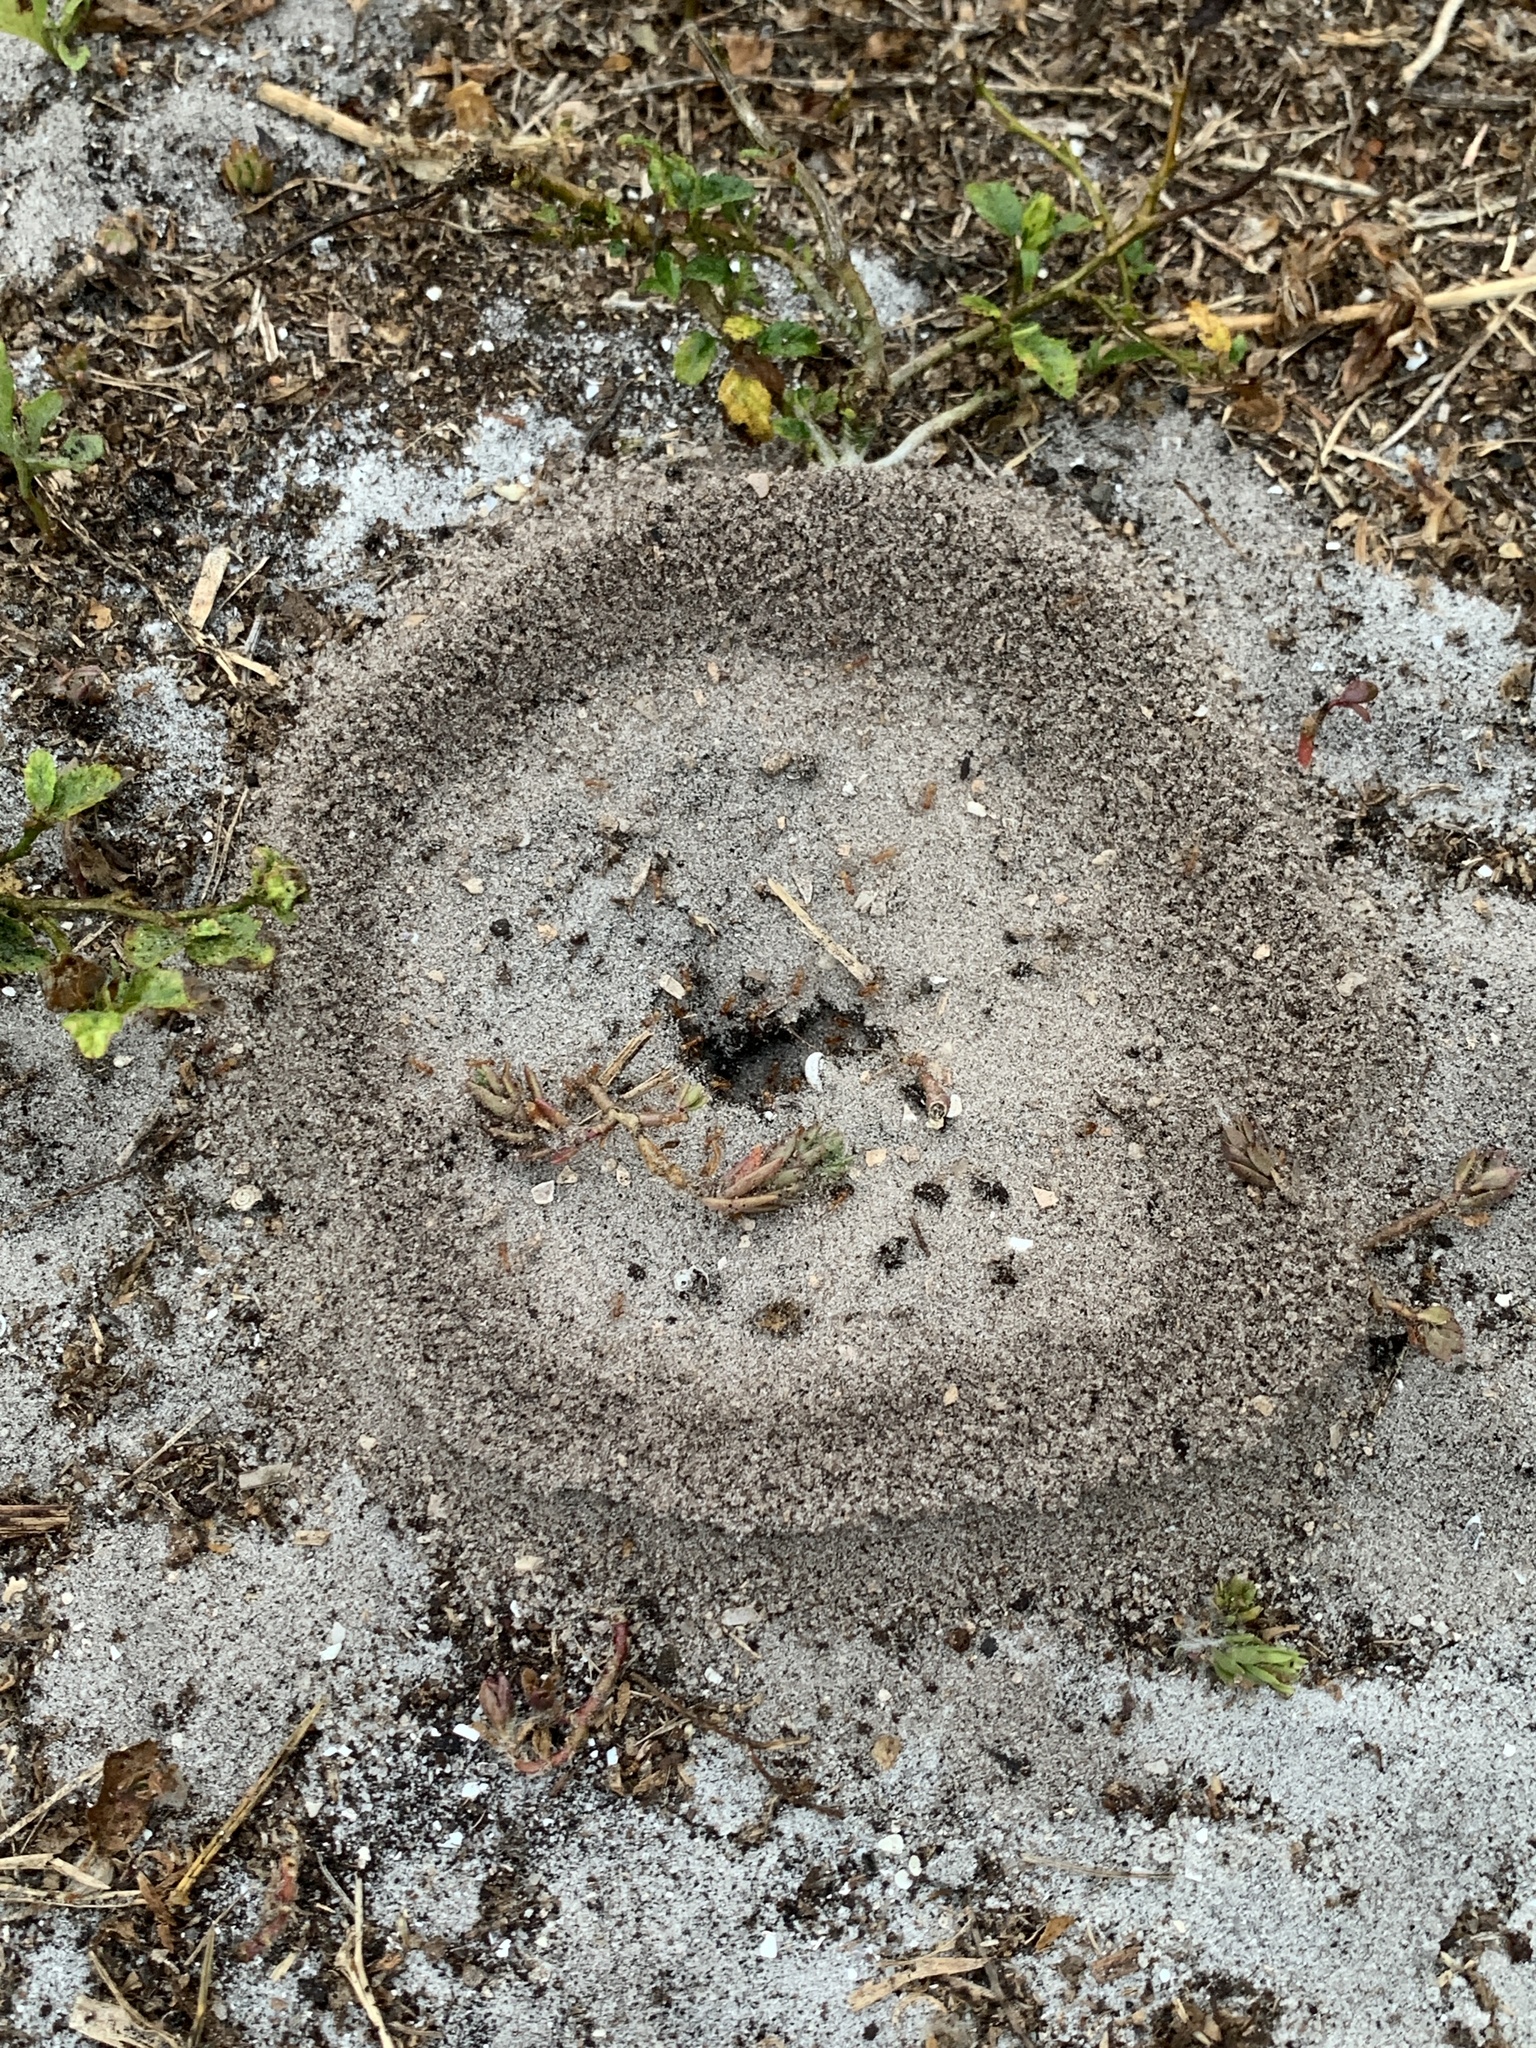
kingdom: Animalia
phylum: Arthropoda
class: Insecta
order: Hymenoptera
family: Formicidae
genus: Dorymyrmex
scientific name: Dorymyrmex bureni
